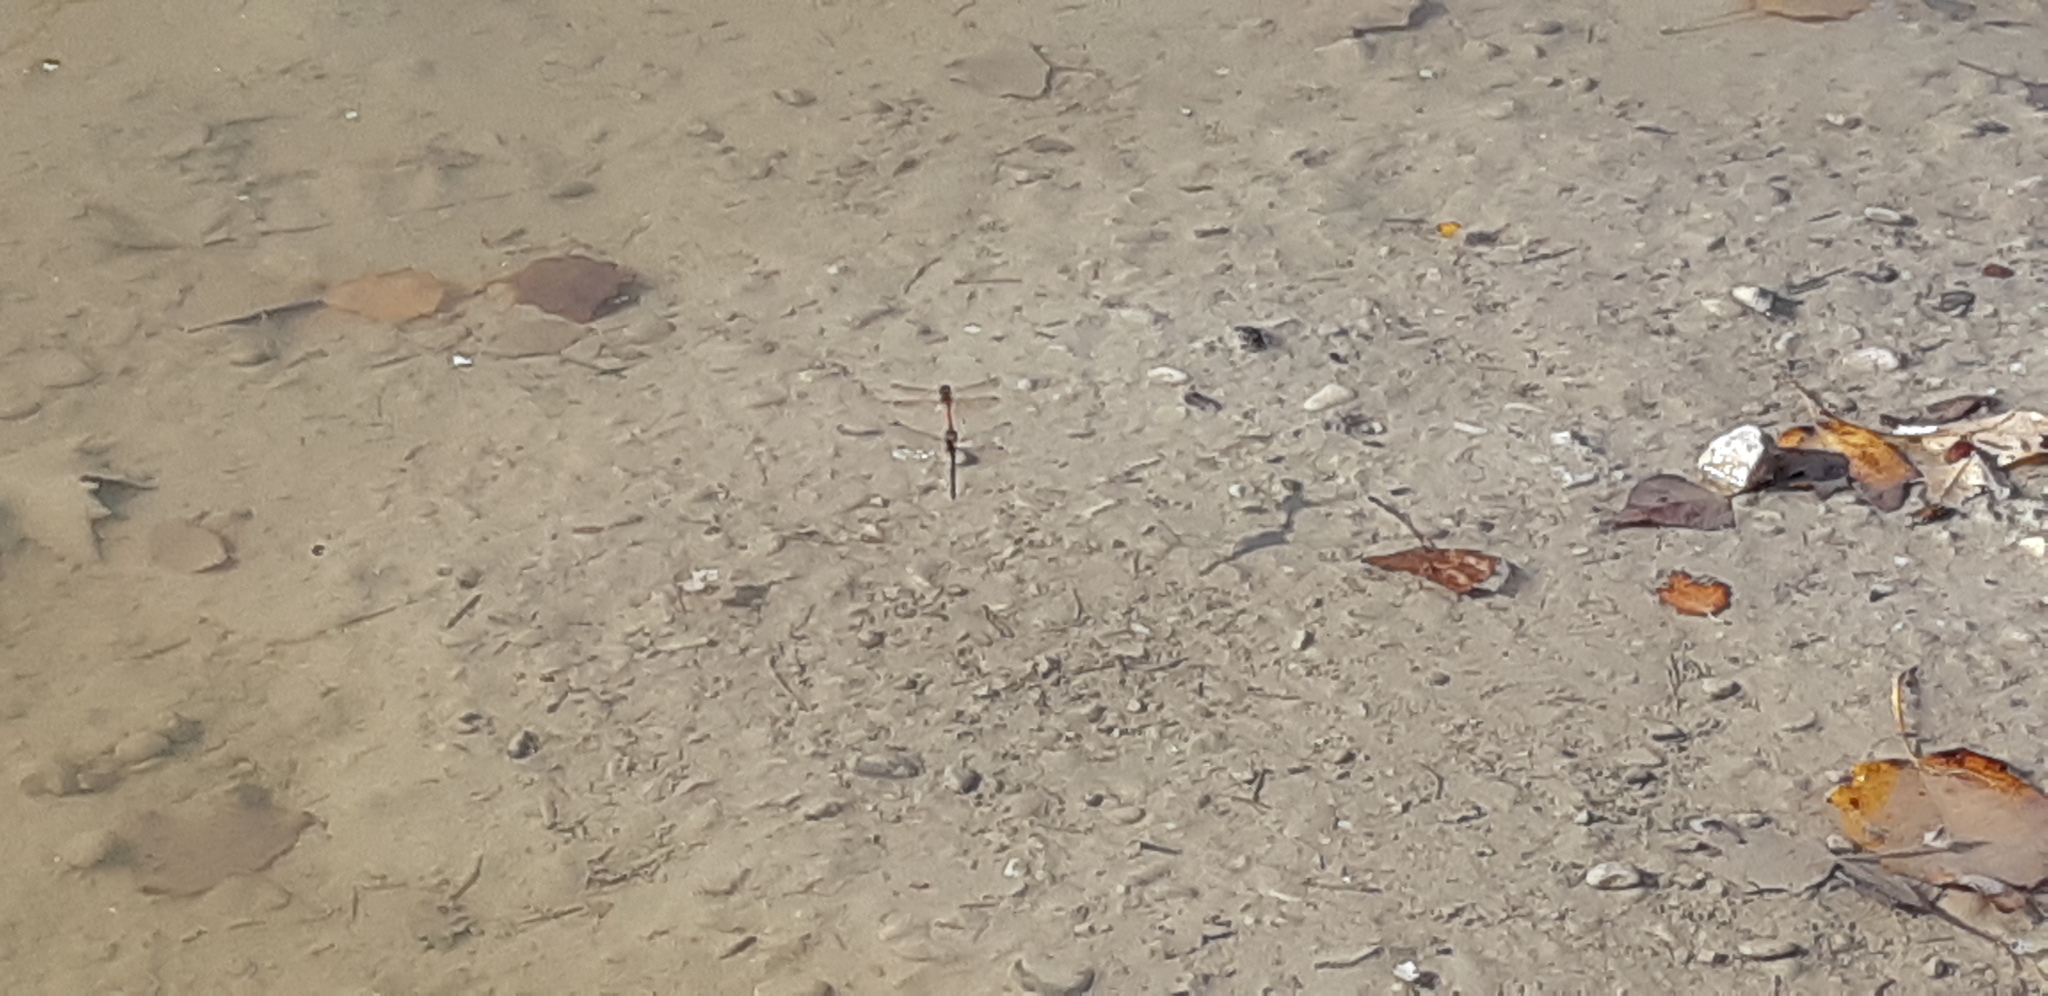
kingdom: Animalia
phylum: Arthropoda
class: Insecta
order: Odonata
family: Libellulidae
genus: Sympetrum
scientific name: Sympetrum striolatum
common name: Common darter
